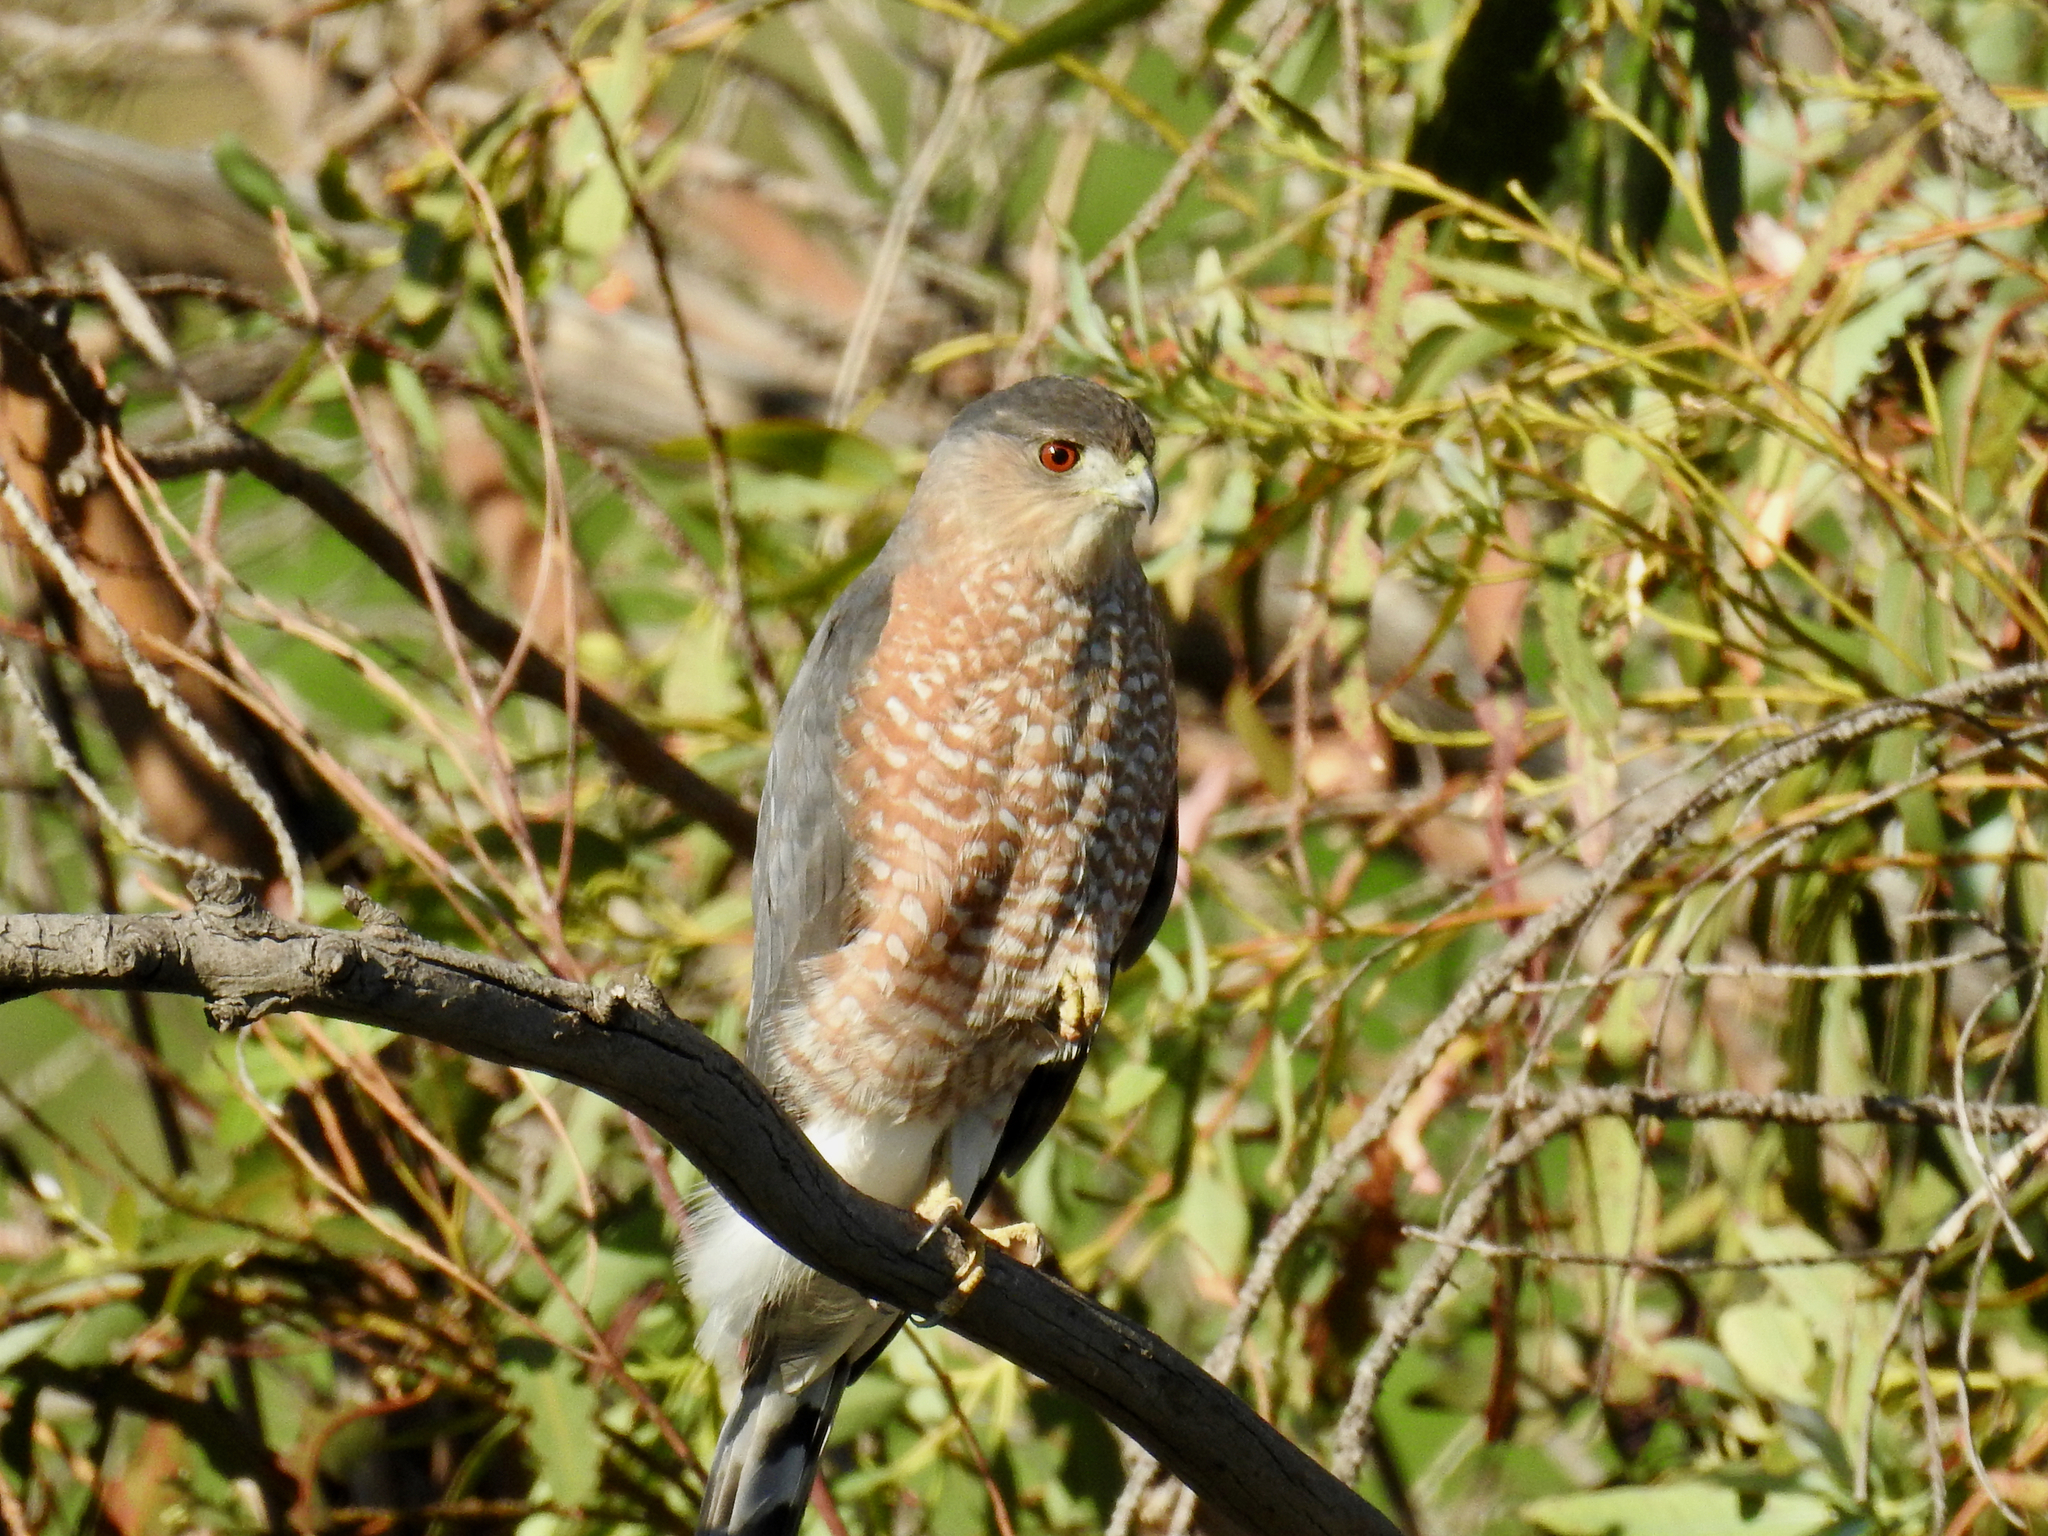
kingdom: Animalia
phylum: Chordata
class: Aves
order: Accipitriformes
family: Accipitridae
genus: Accipiter
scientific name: Accipiter cooperii
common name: Cooper's hawk
